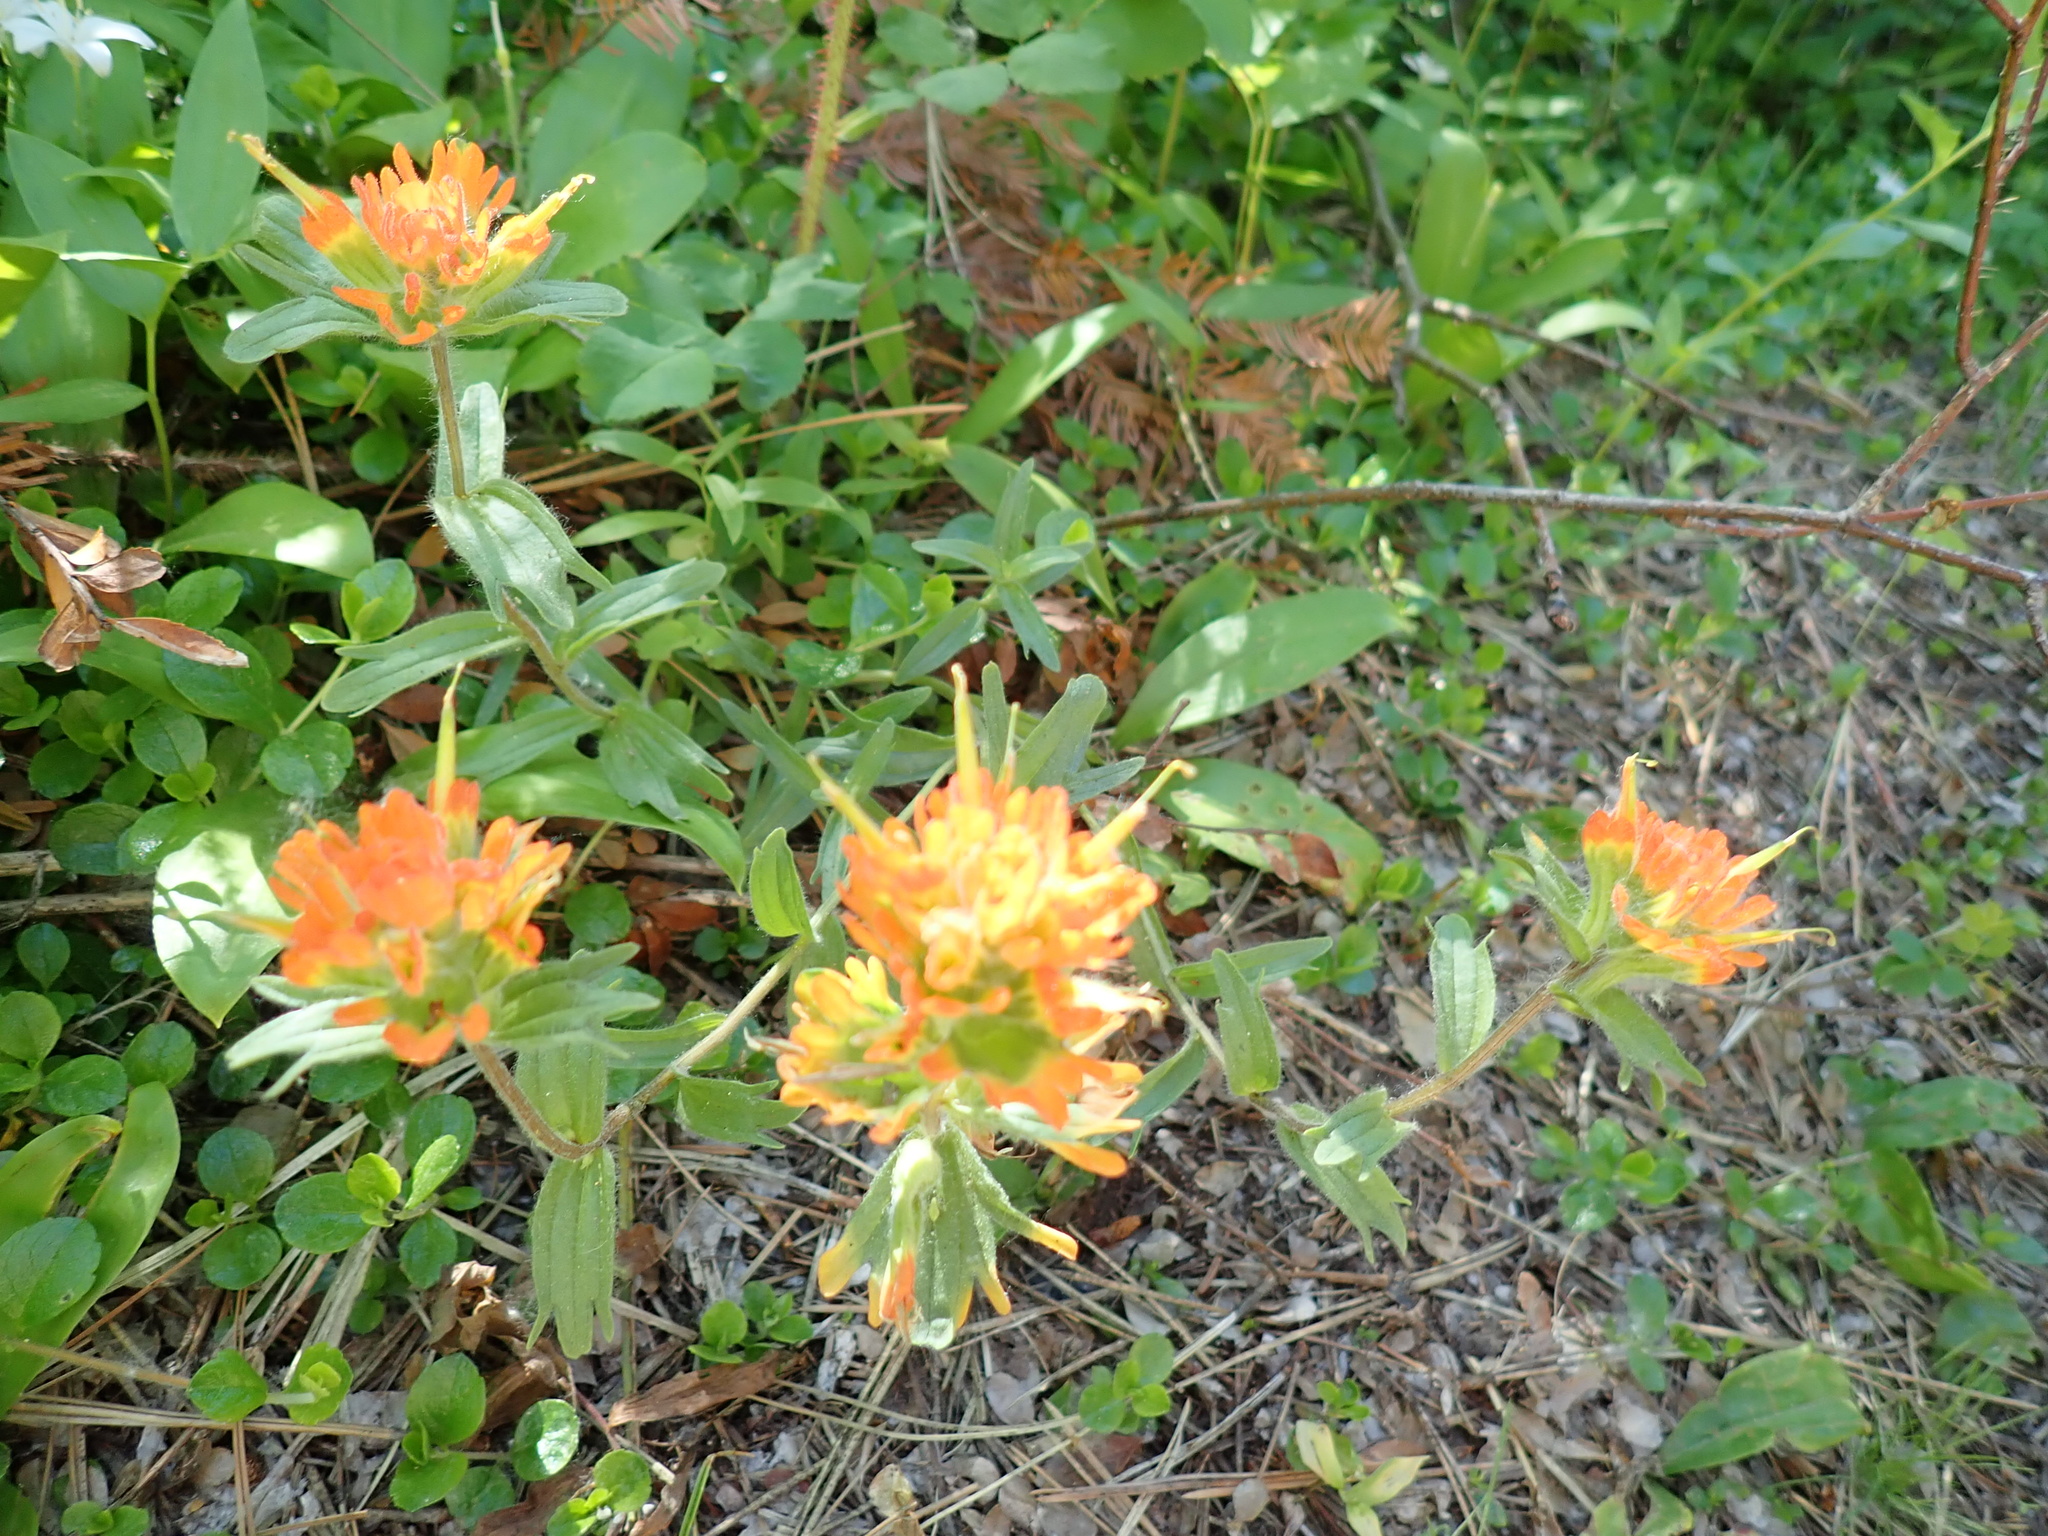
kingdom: Plantae
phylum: Tracheophyta
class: Magnoliopsida
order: Lamiales
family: Orobanchaceae
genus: Castilleja
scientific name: Castilleja hispida
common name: Bristly paintbrush
